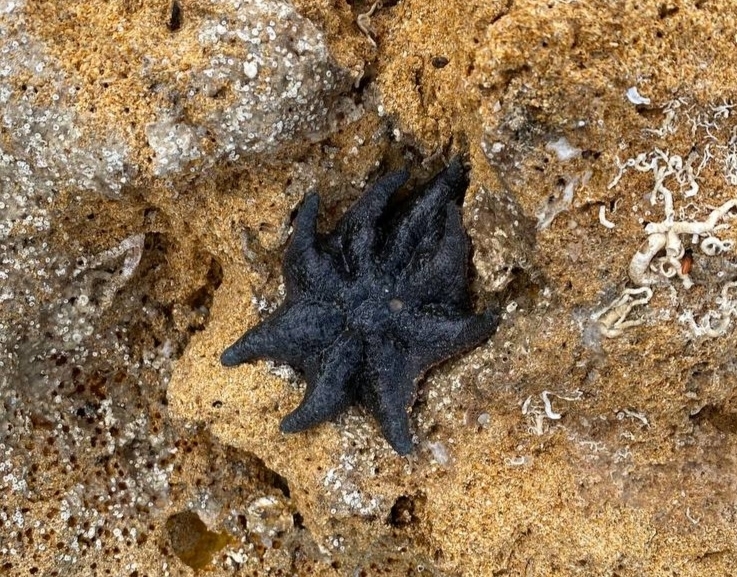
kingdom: Animalia
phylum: Echinodermata
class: Asteroidea
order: Valvatida
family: Asterinidae
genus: Meridiastra
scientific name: Meridiastra calcar
